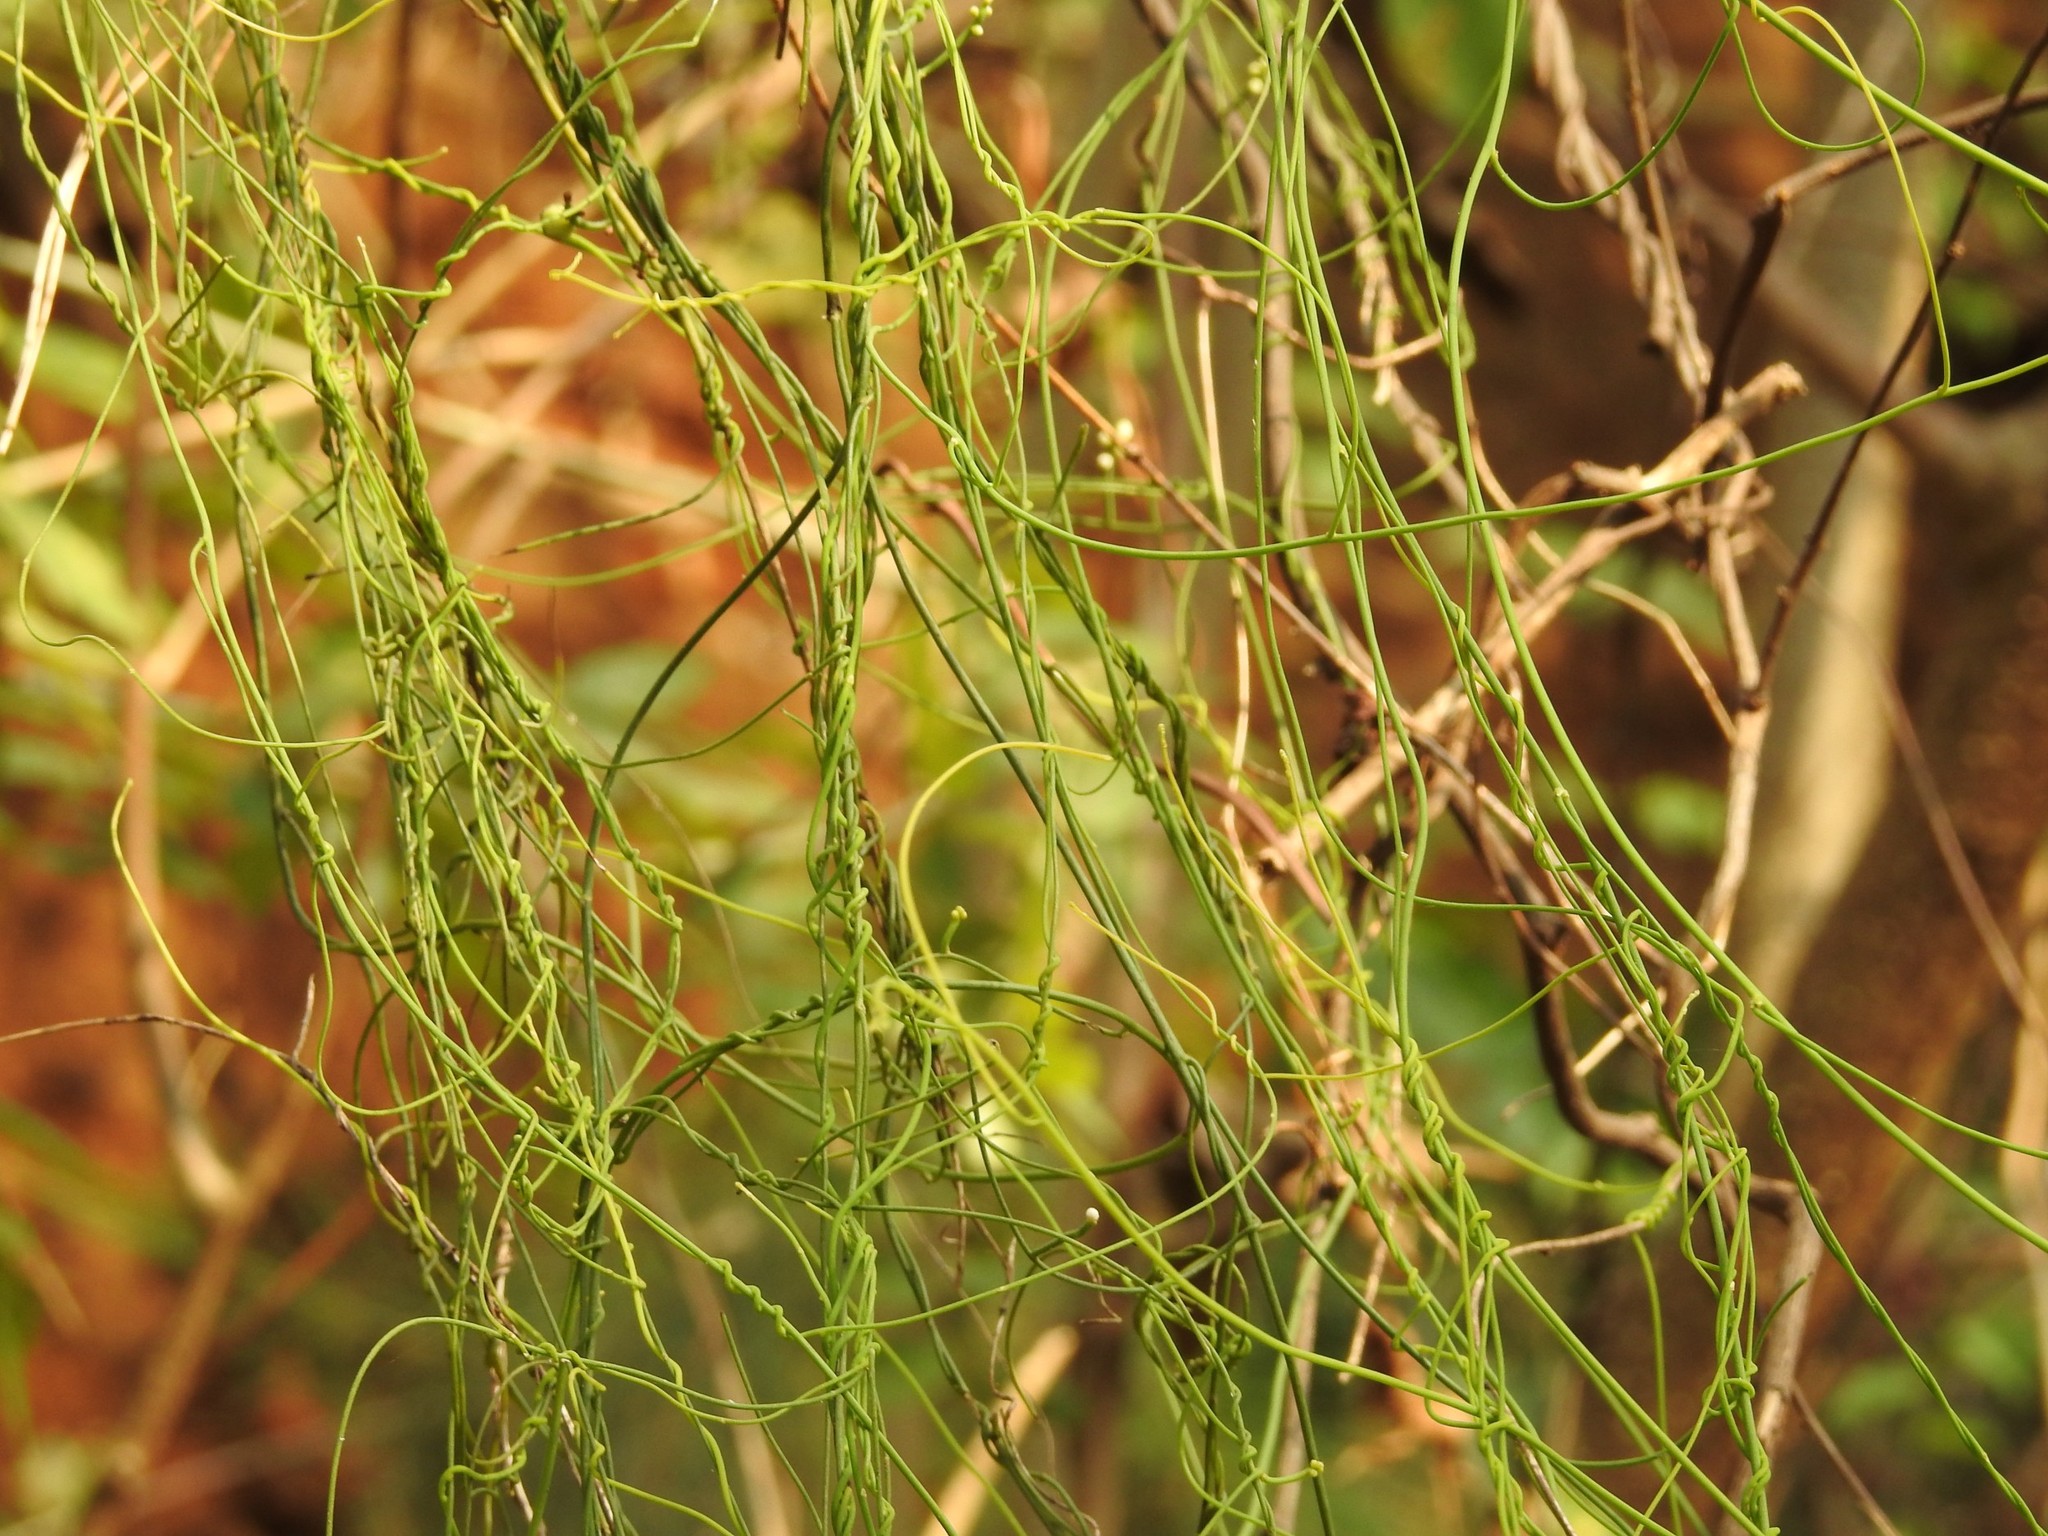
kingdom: Plantae
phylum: Tracheophyta
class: Magnoliopsida
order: Laurales
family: Lauraceae
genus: Cassytha
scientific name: Cassytha filiformis
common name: Dodder-laurel
